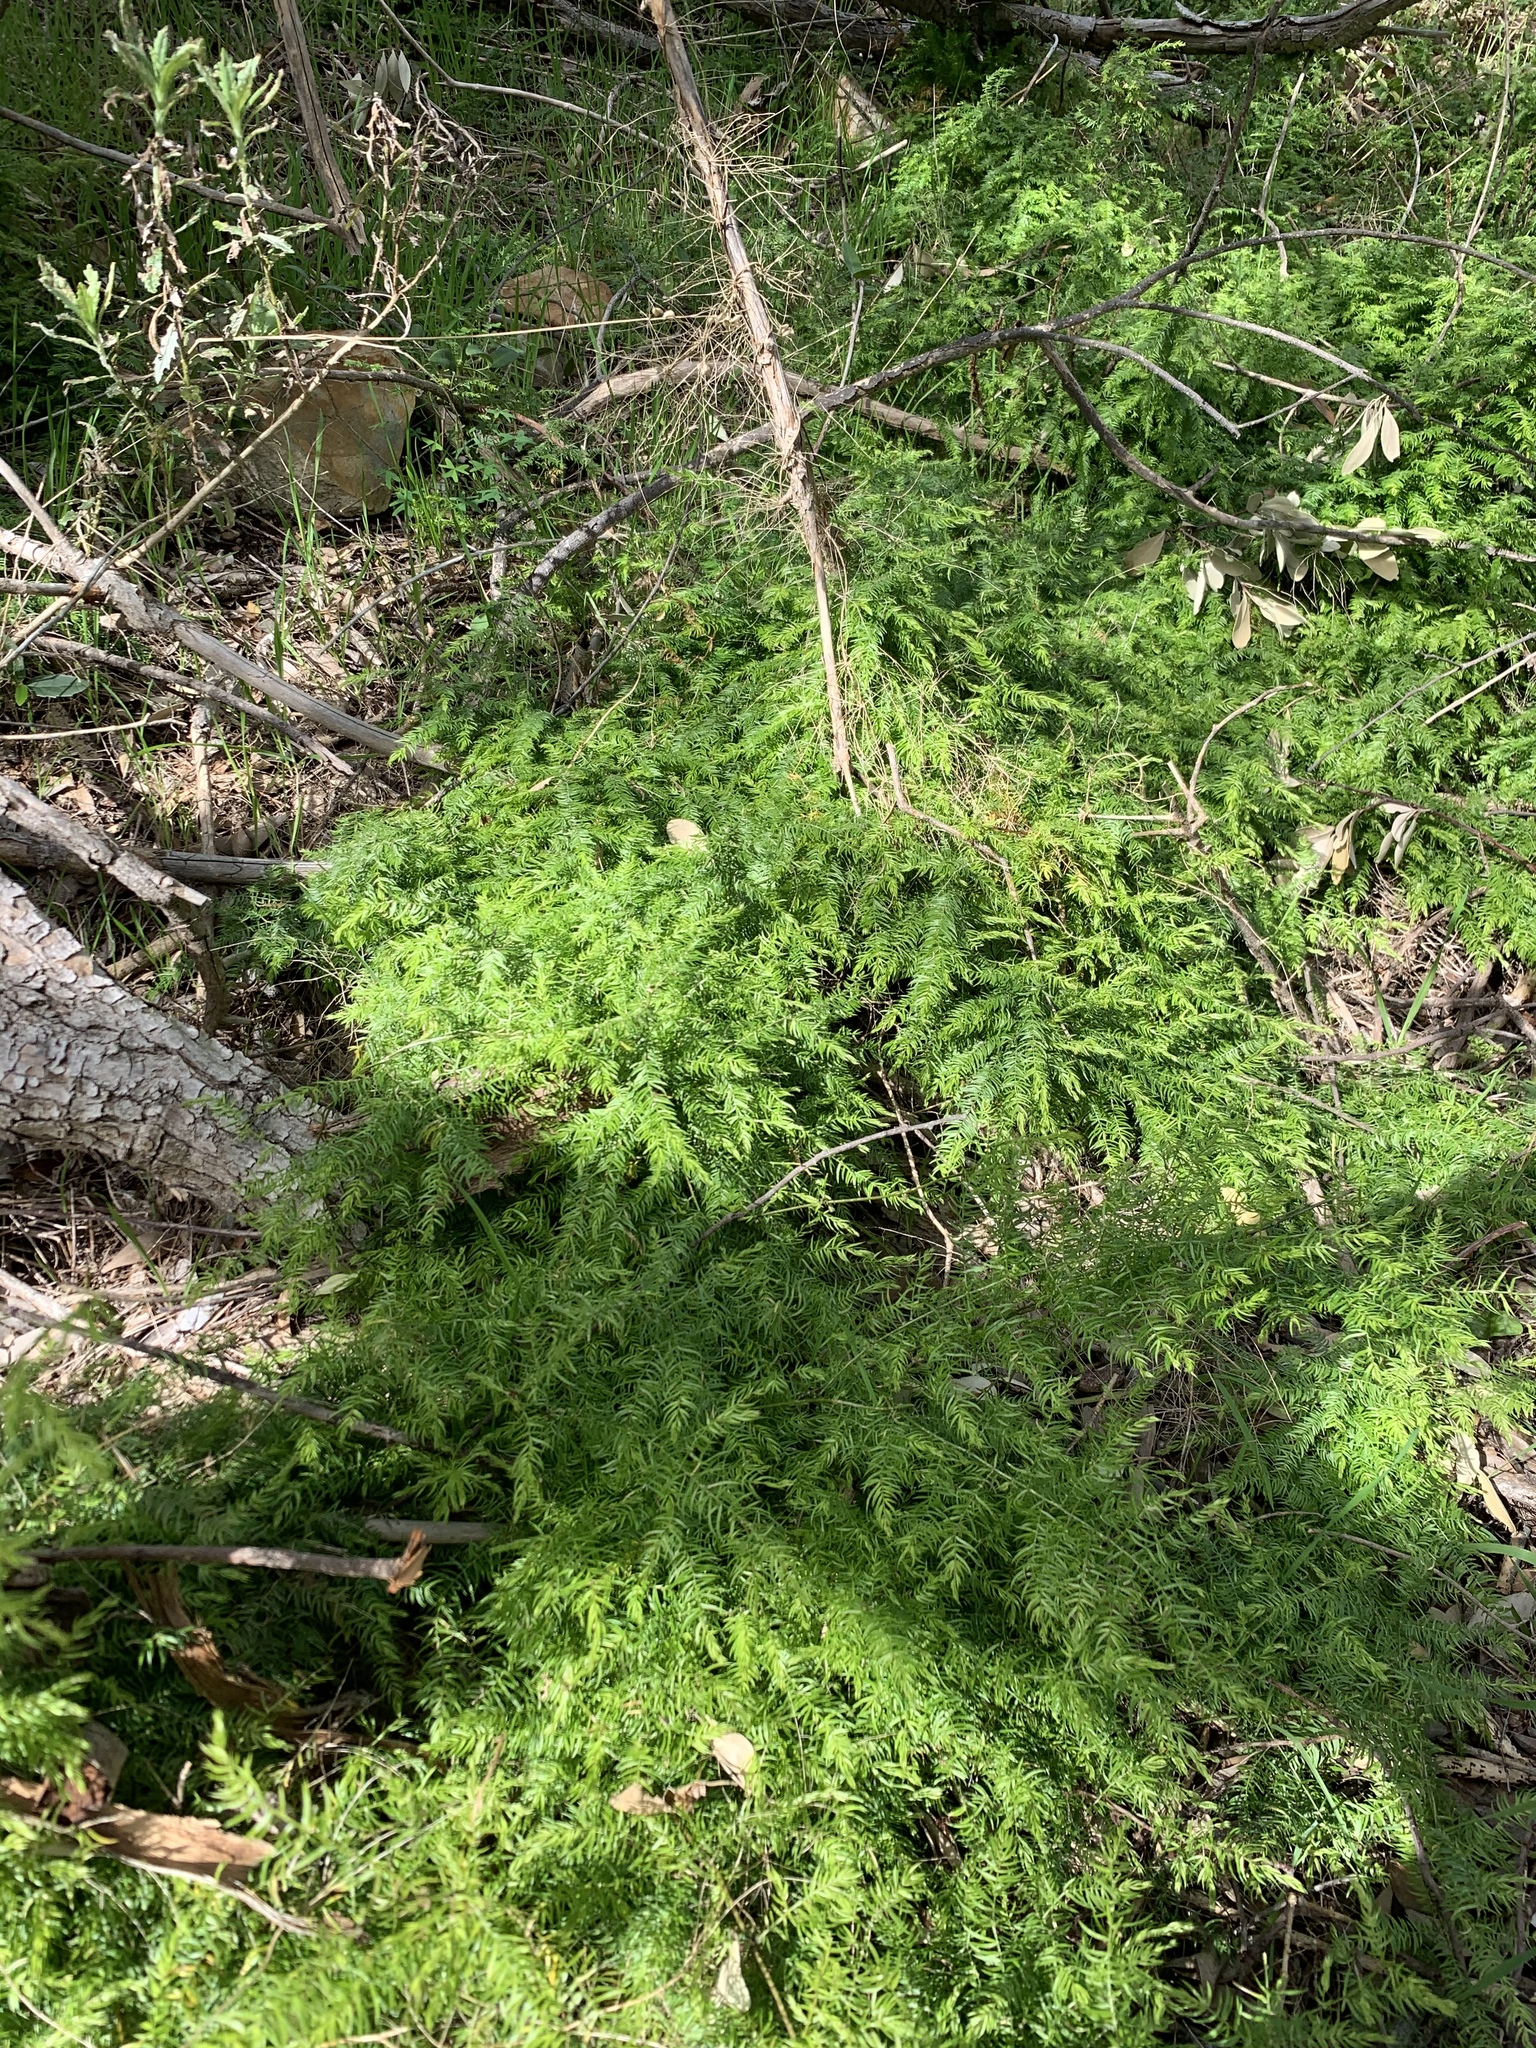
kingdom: Plantae
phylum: Tracheophyta
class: Liliopsida
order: Asparagales
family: Asparagaceae
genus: Asparagus
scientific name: Asparagus scandens
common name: Asparagus-fern
